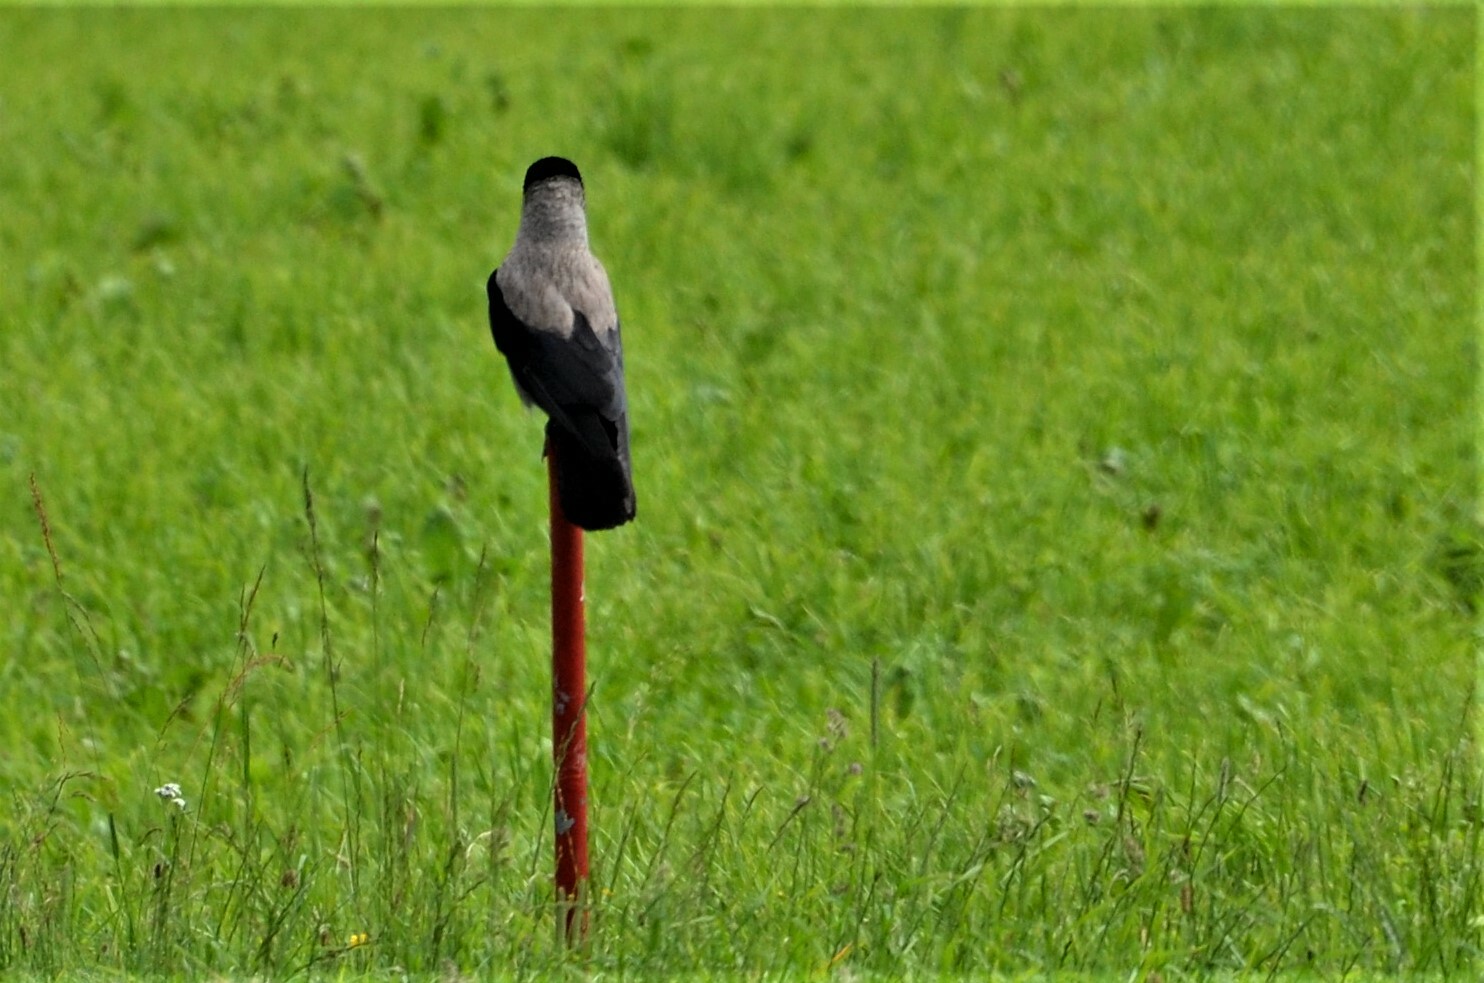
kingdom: Animalia
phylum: Chordata
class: Aves
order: Passeriformes
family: Corvidae
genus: Corvus
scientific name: Corvus cornix
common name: Hooded crow
